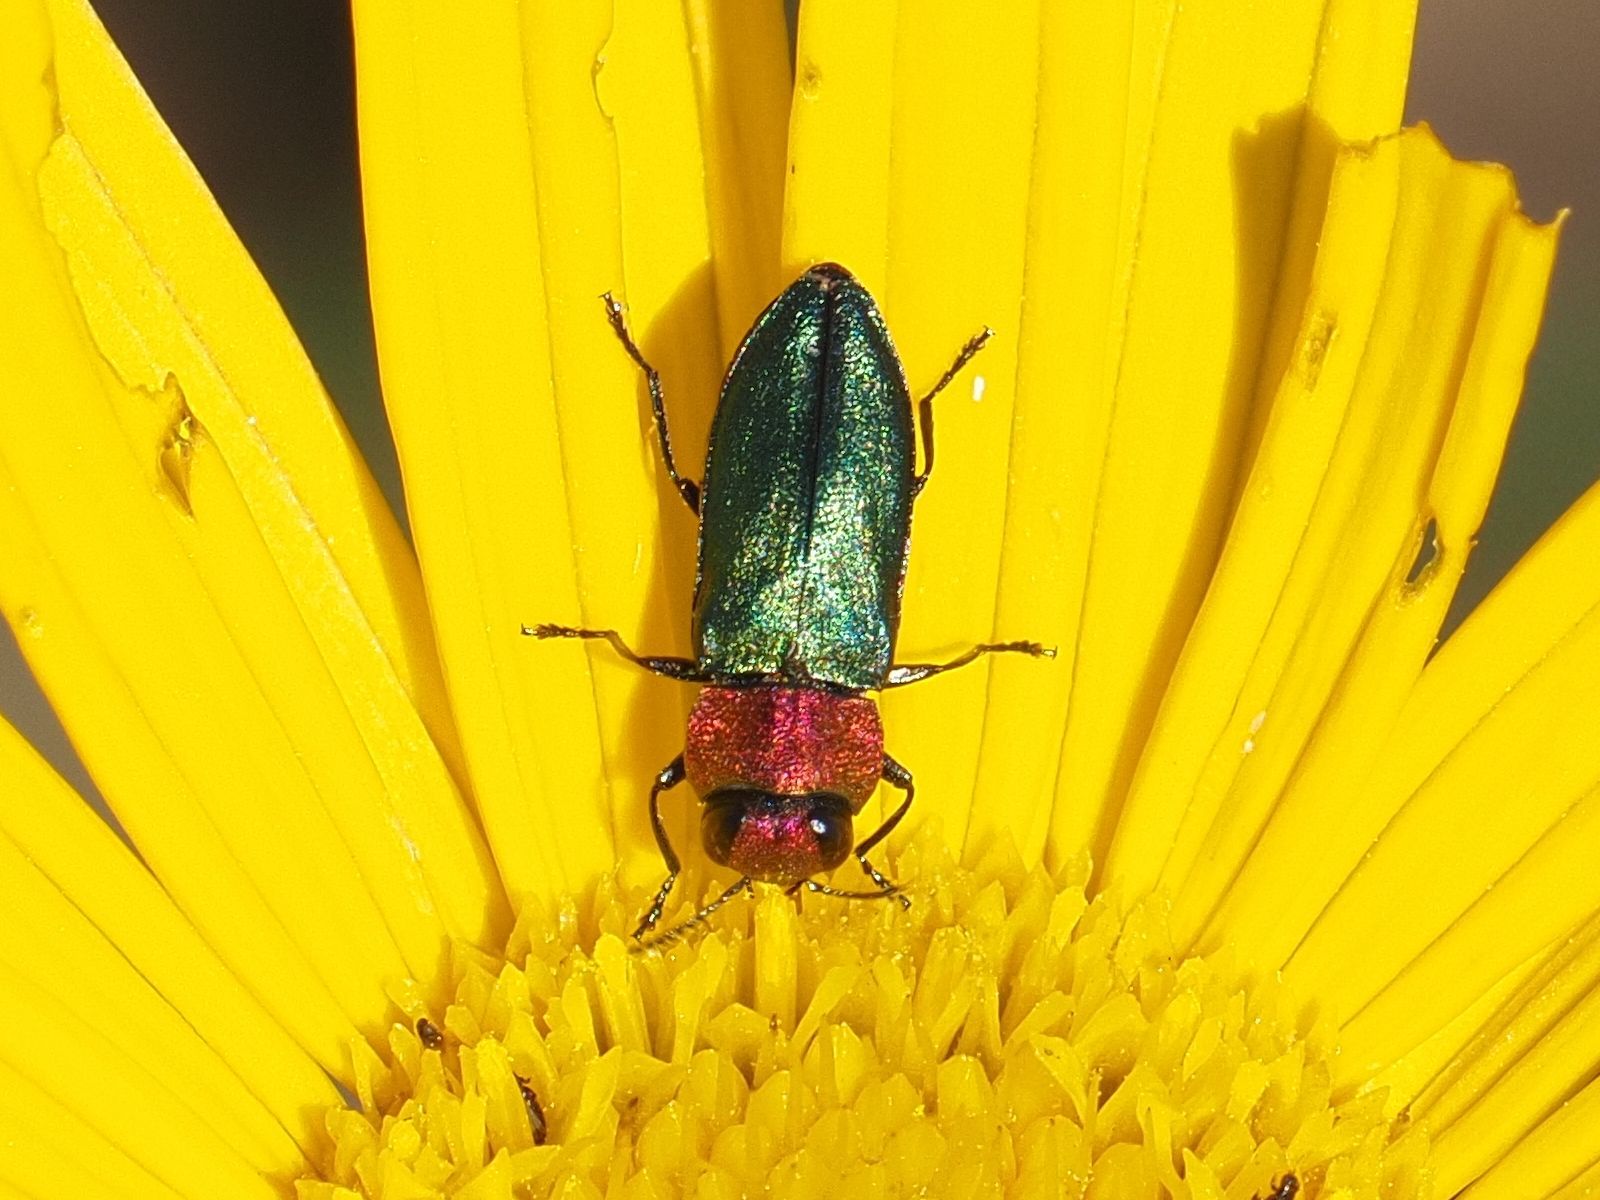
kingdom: Animalia
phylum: Arthropoda
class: Insecta
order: Coleoptera
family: Buprestidae
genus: Anthaxia
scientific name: Anthaxia nitidula
